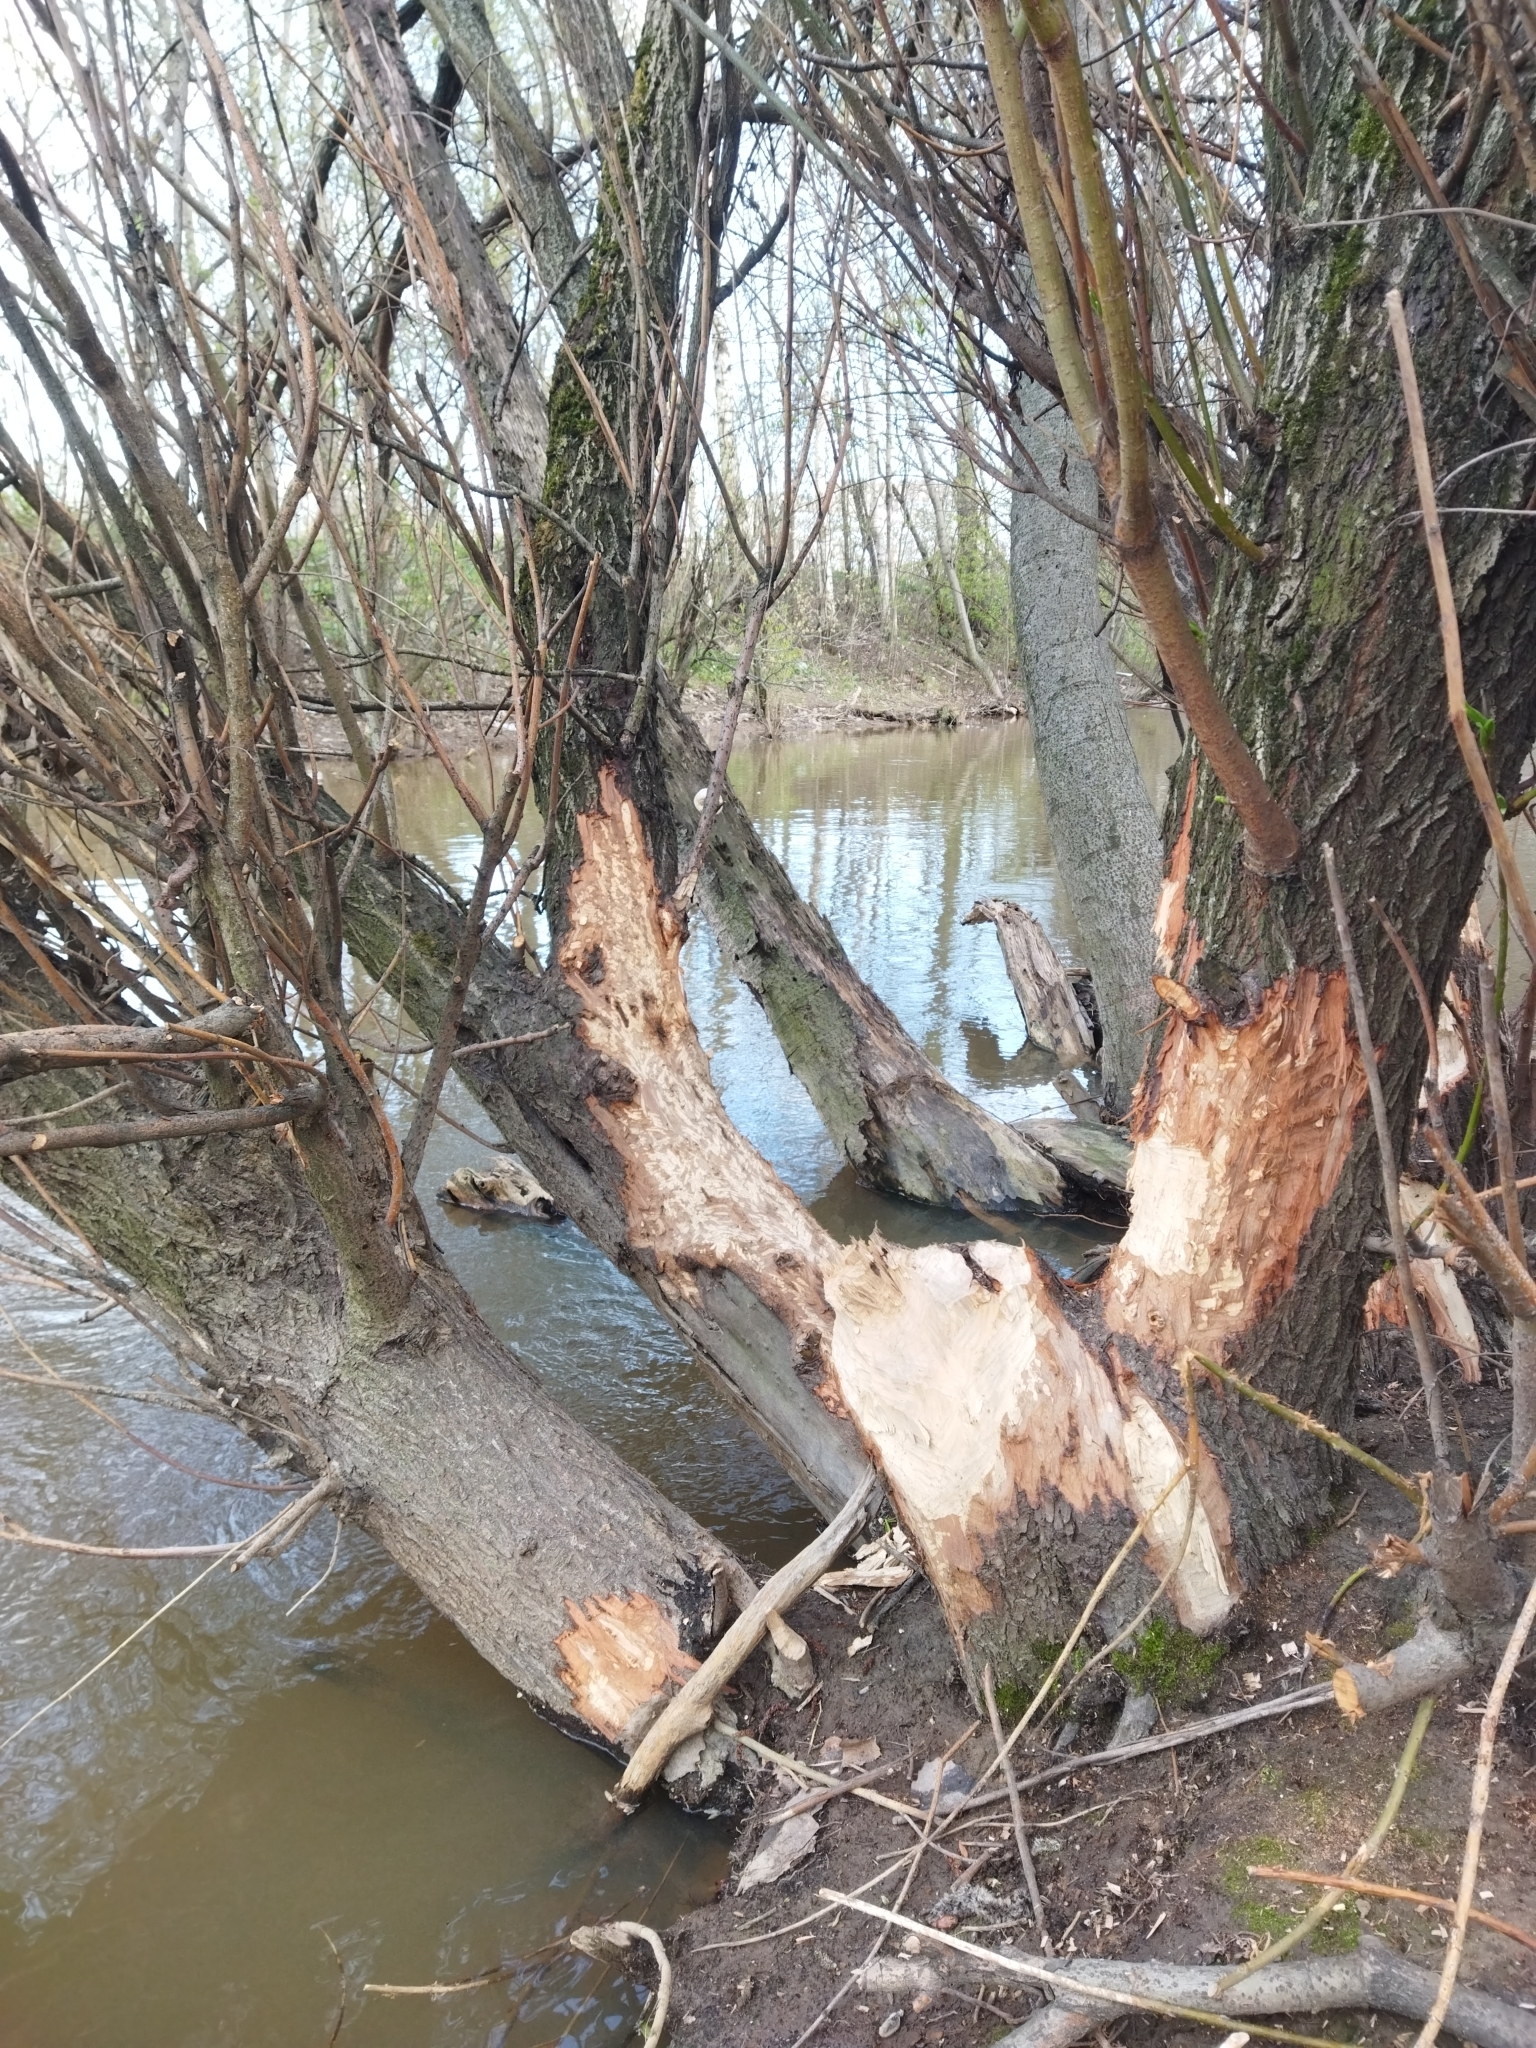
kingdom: Animalia
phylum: Chordata
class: Mammalia
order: Rodentia
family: Castoridae
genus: Castor
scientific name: Castor fiber
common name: Eurasian beaver
